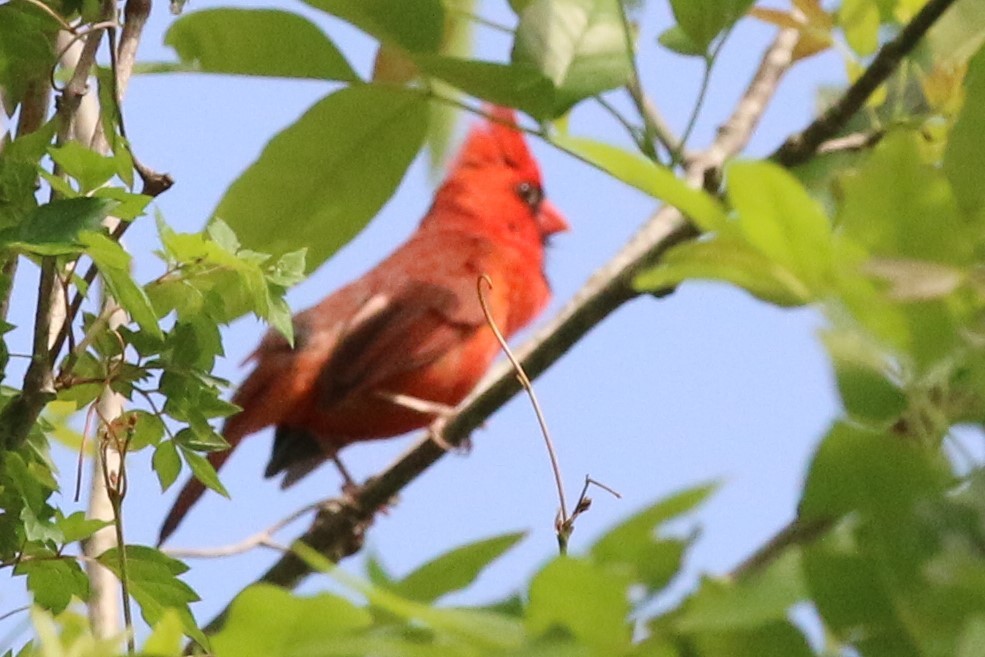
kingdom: Animalia
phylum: Chordata
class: Aves
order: Passeriformes
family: Cardinalidae
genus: Cardinalis
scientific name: Cardinalis cardinalis
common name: Northern cardinal
